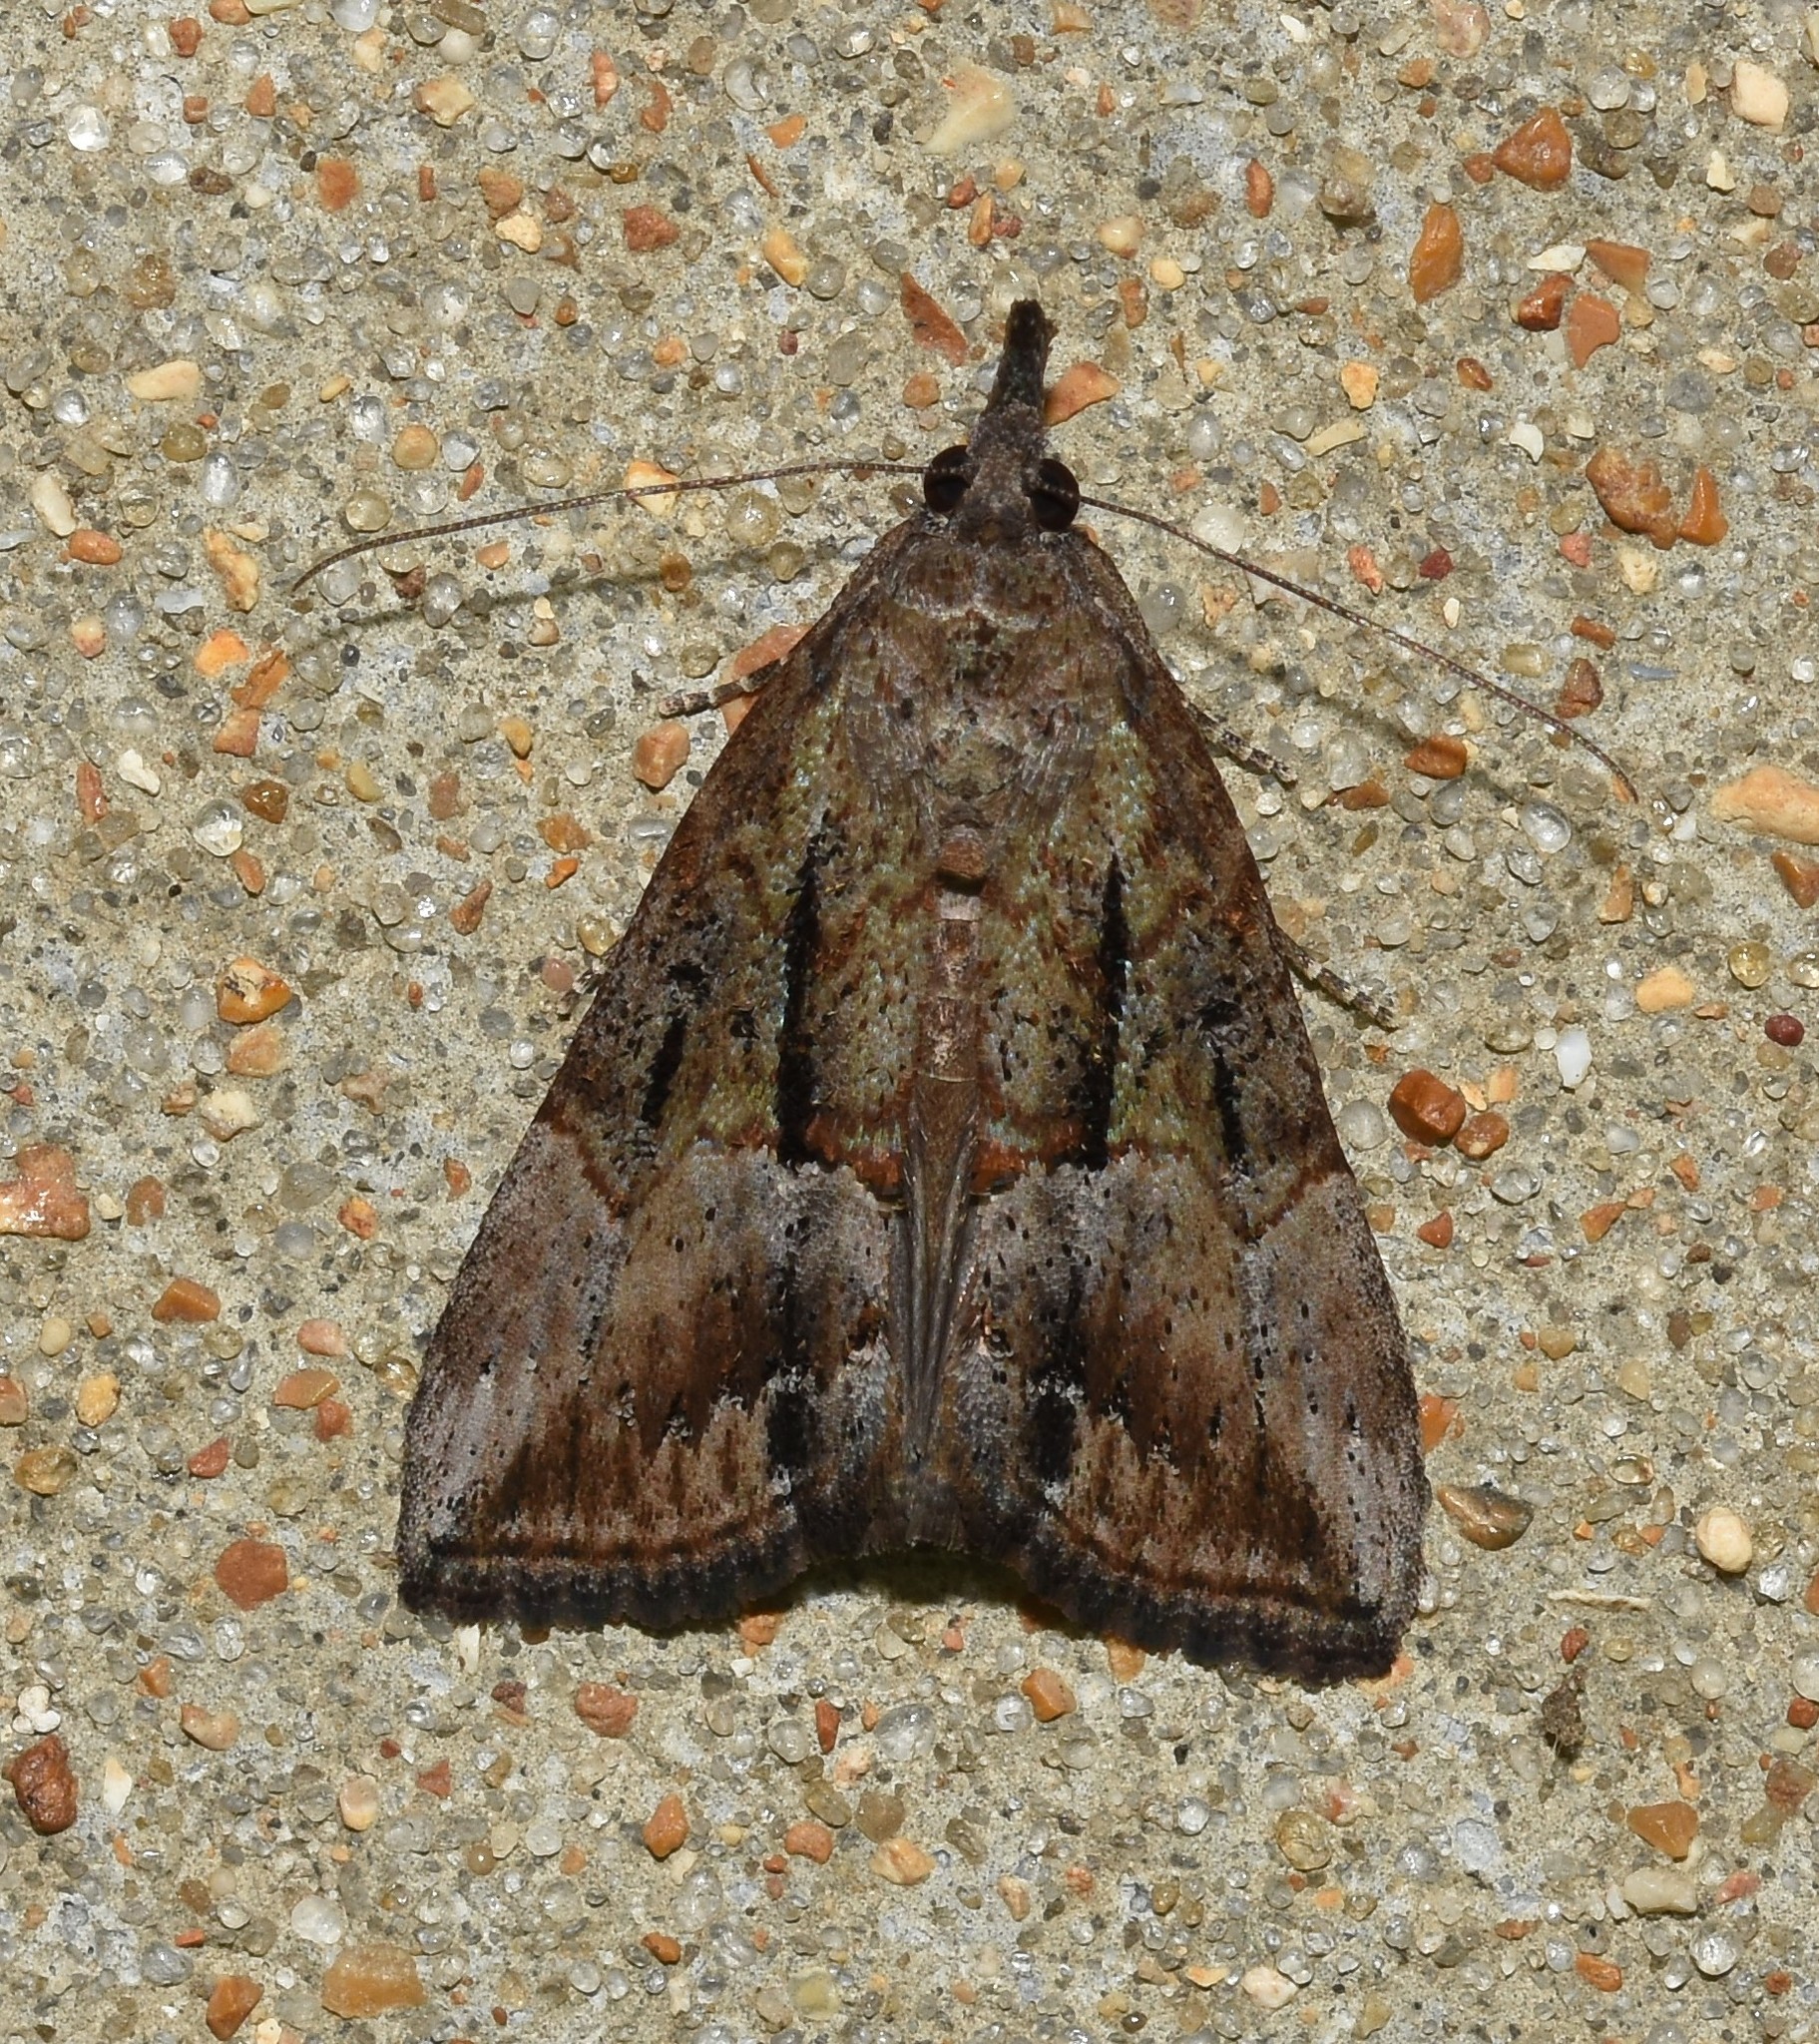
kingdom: Animalia
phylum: Arthropoda
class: Insecta
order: Lepidoptera
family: Erebidae
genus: Hypena
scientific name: Hypena scabra
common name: Green cloverworm
